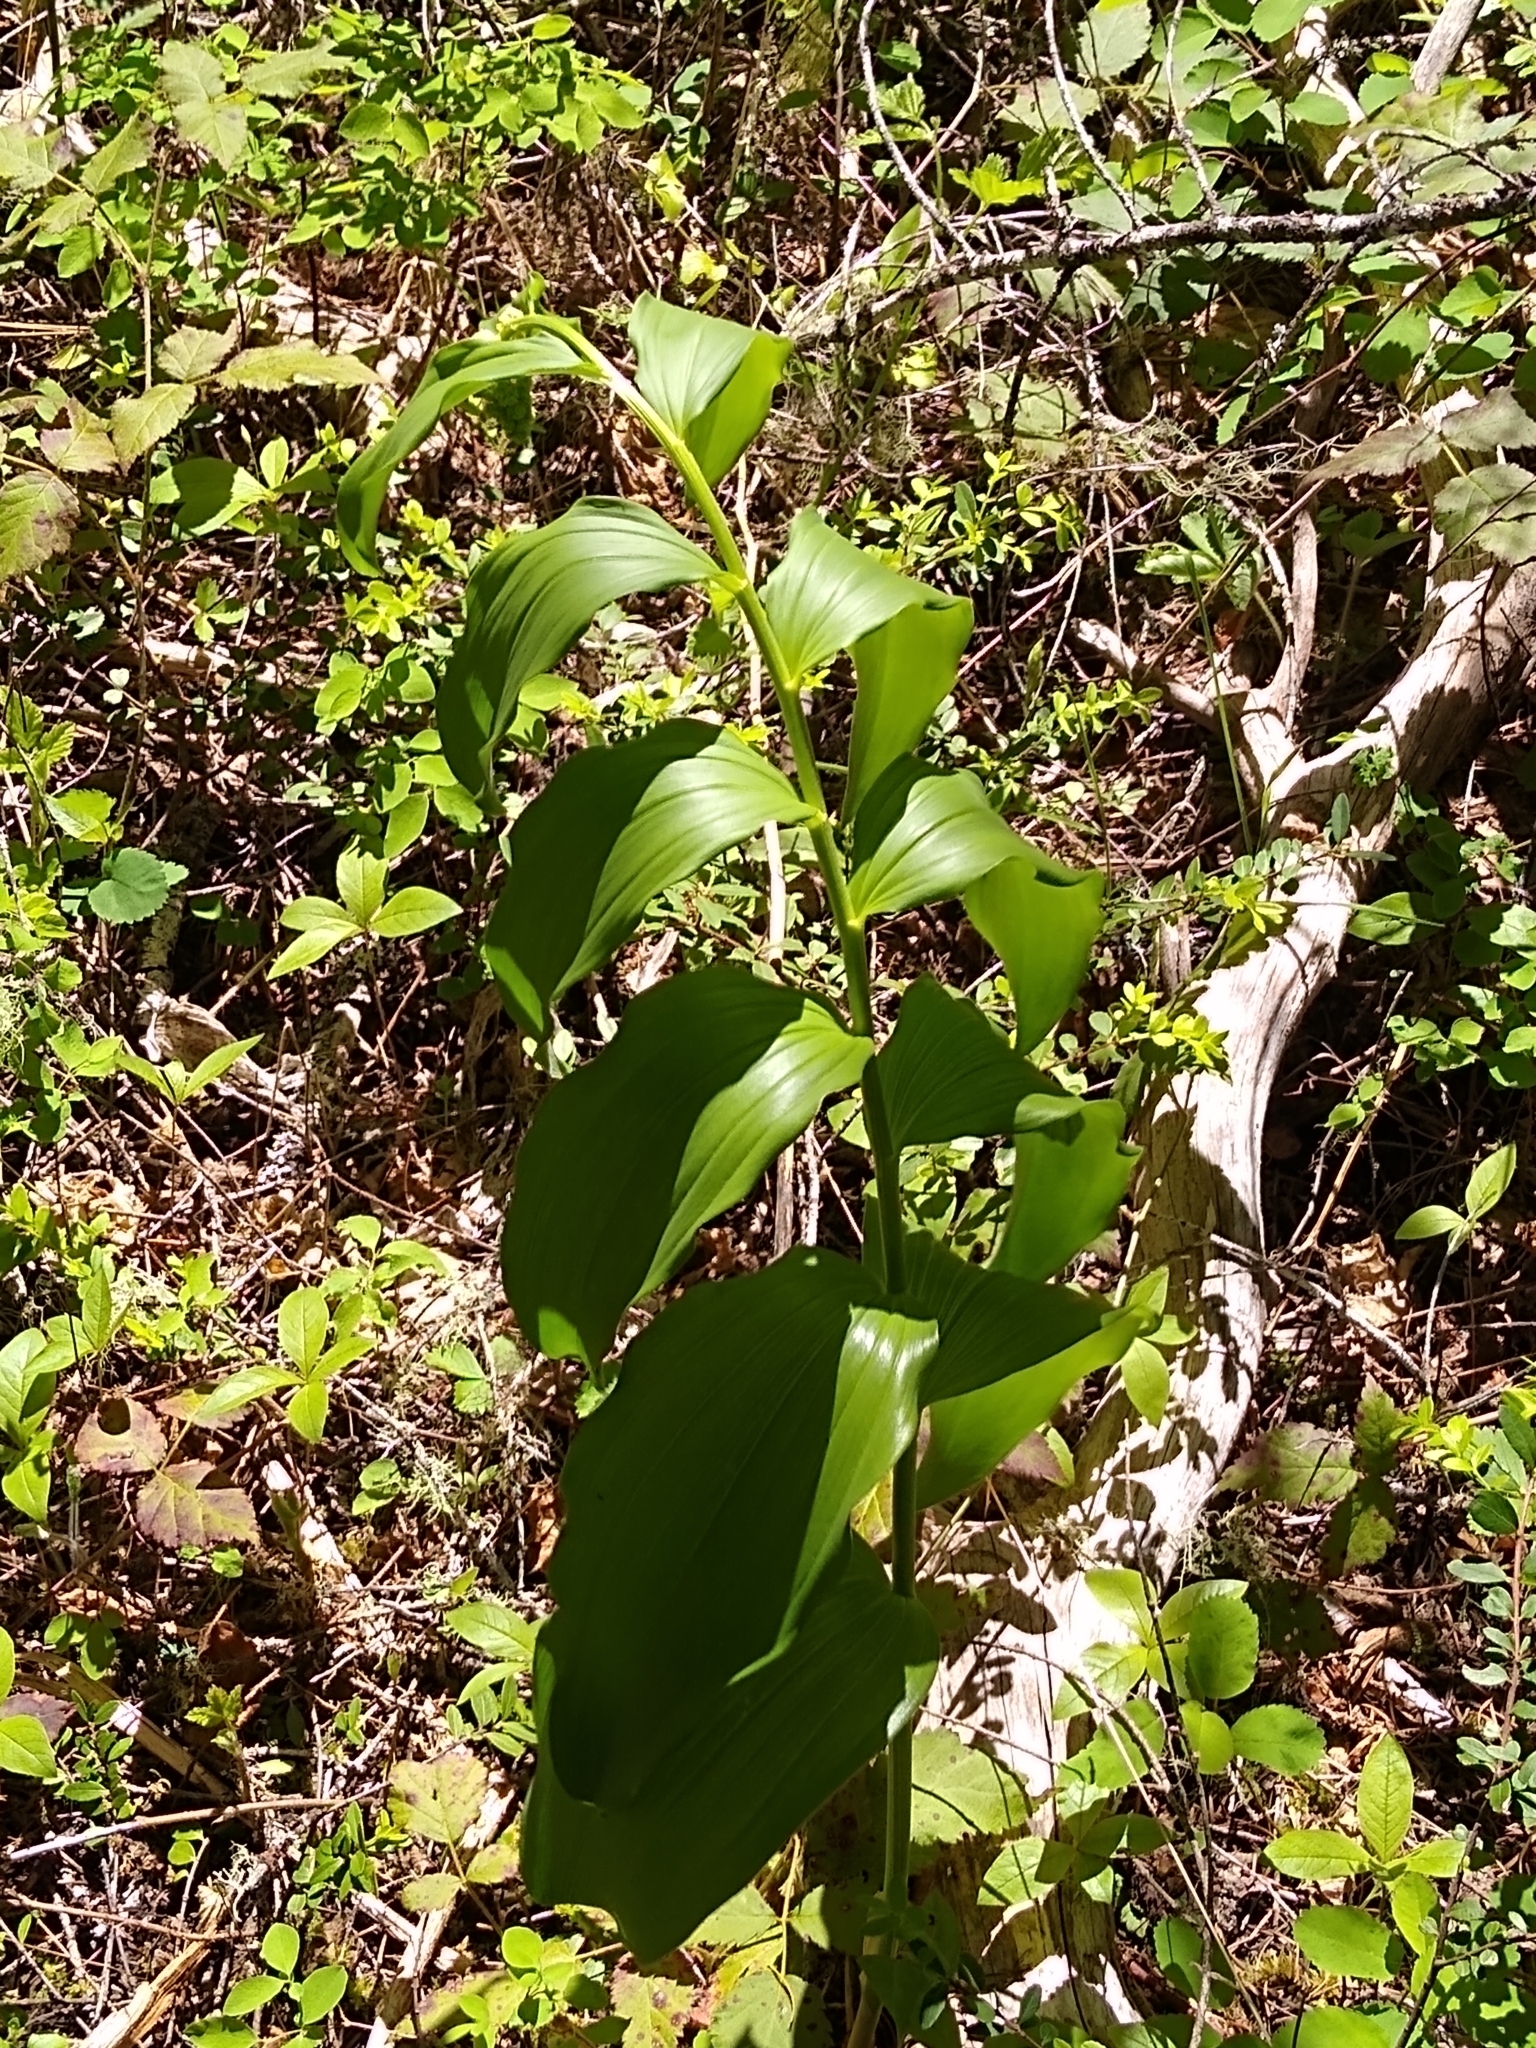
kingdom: Plantae
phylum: Tracheophyta
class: Liliopsida
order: Asparagales
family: Asparagaceae
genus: Maianthemum
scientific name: Maianthemum racemosum
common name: False spikenard
